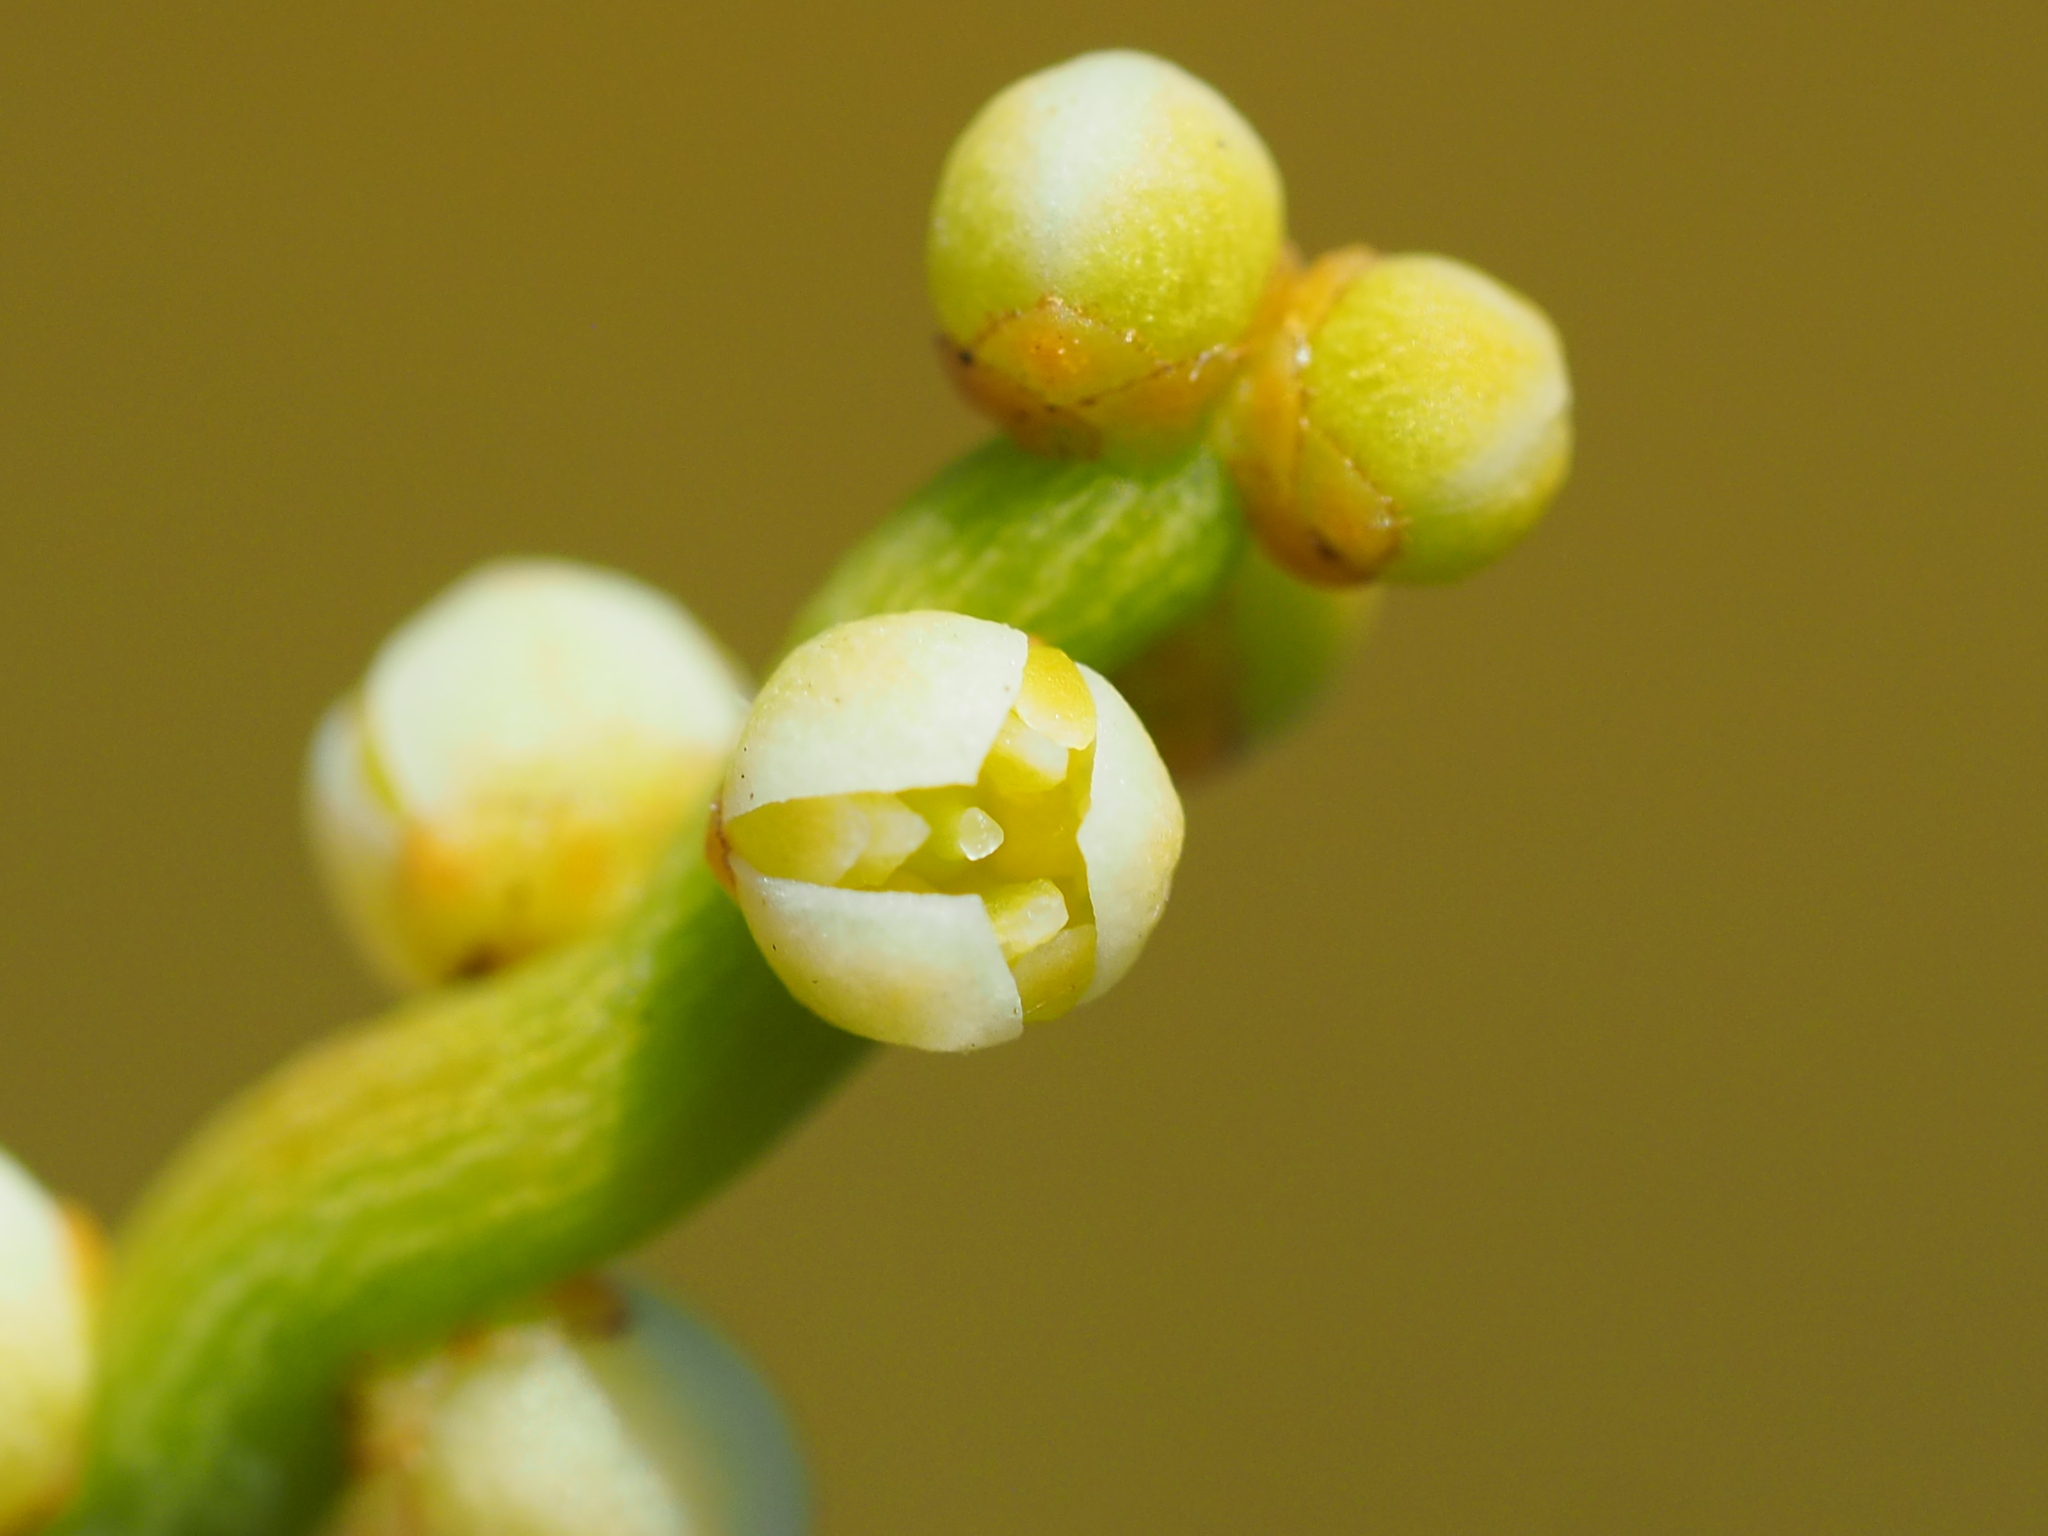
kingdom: Plantae
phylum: Tracheophyta
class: Magnoliopsida
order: Laurales
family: Lauraceae
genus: Cassytha
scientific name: Cassytha filiformis
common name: Dodder-laurel
